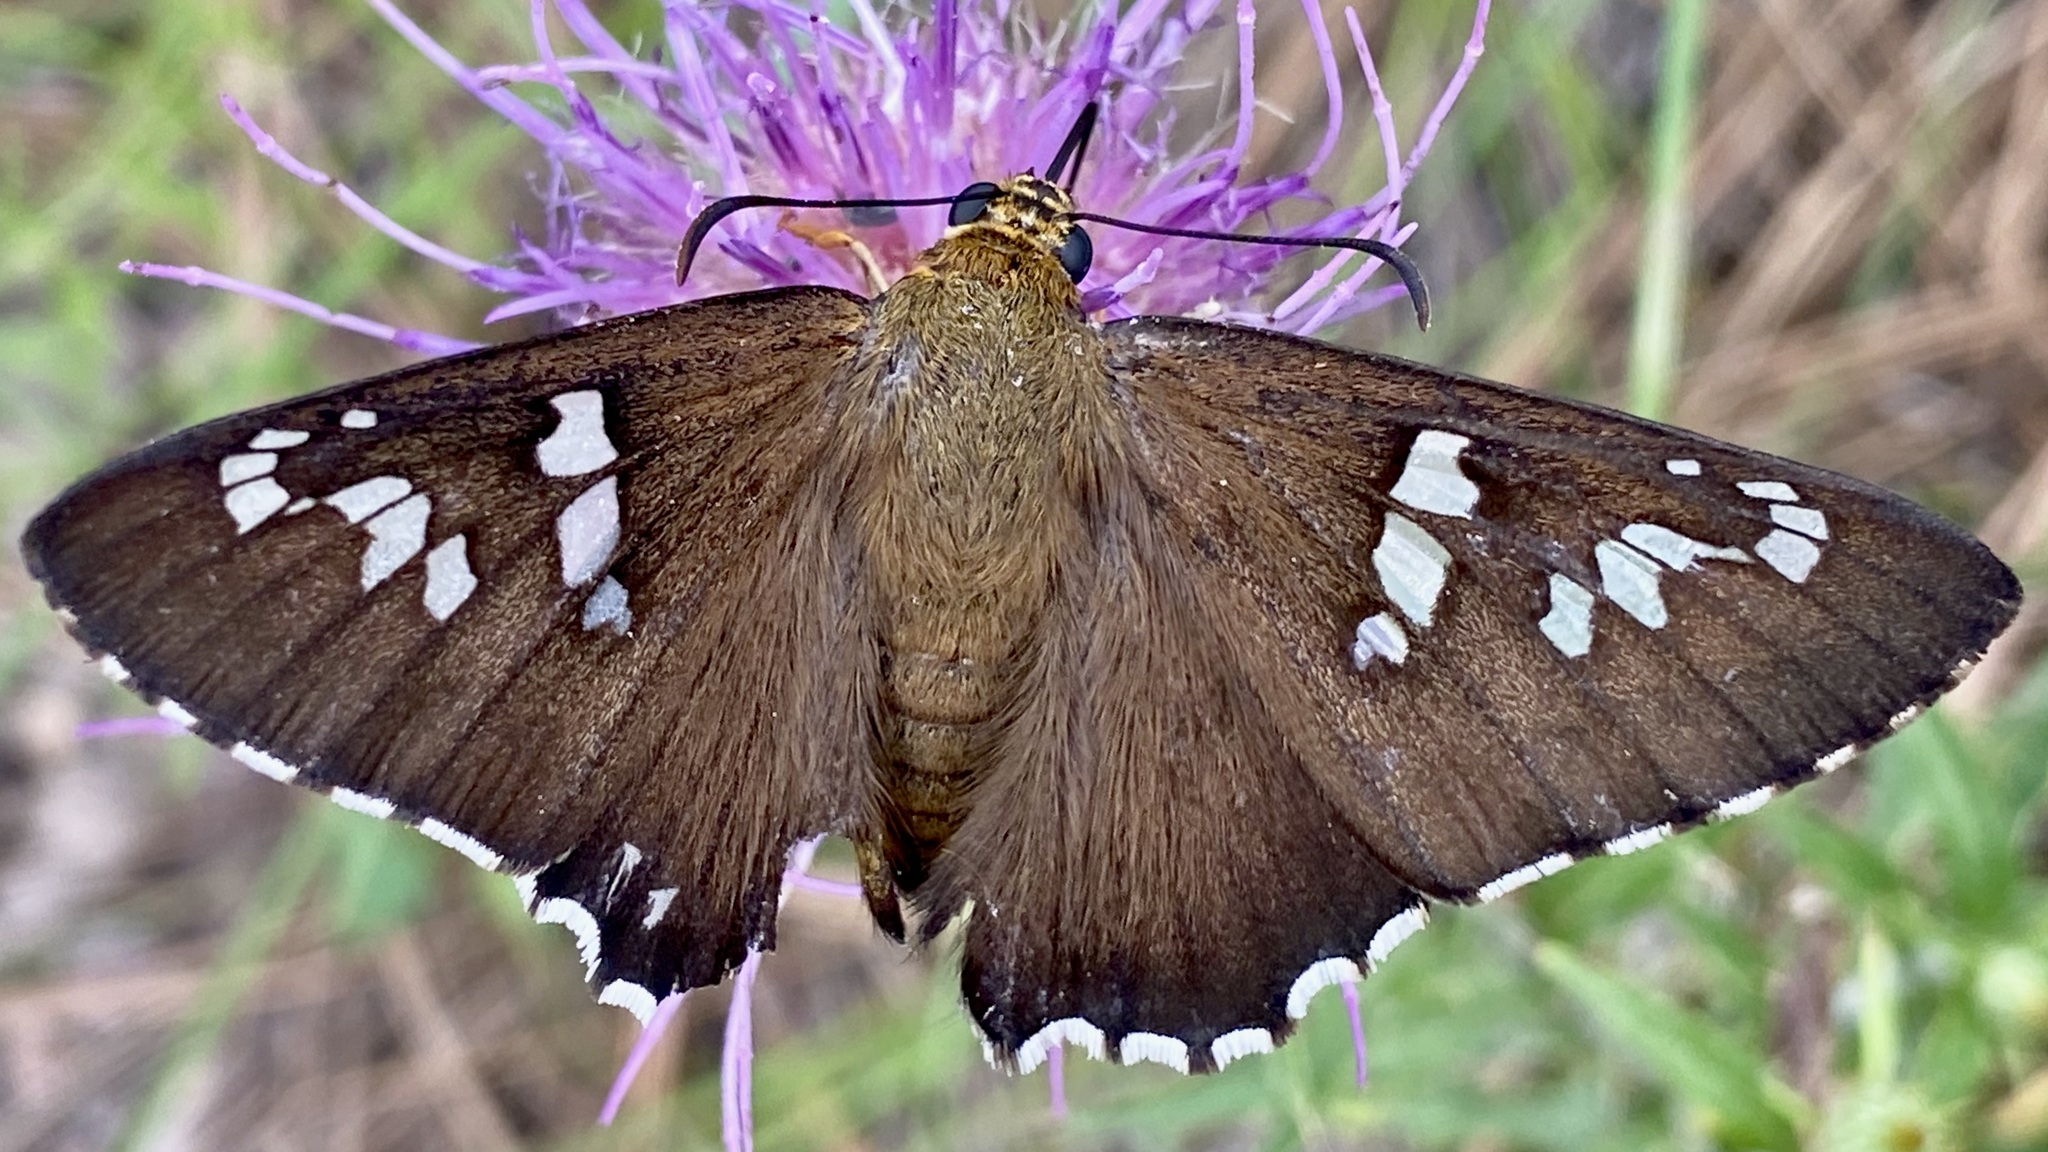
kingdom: Animalia
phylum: Arthropoda
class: Insecta
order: Lepidoptera
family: Hesperiidae
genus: Pyrrhopyge
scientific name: Pyrrhopyge araxes
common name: Dull firetip
